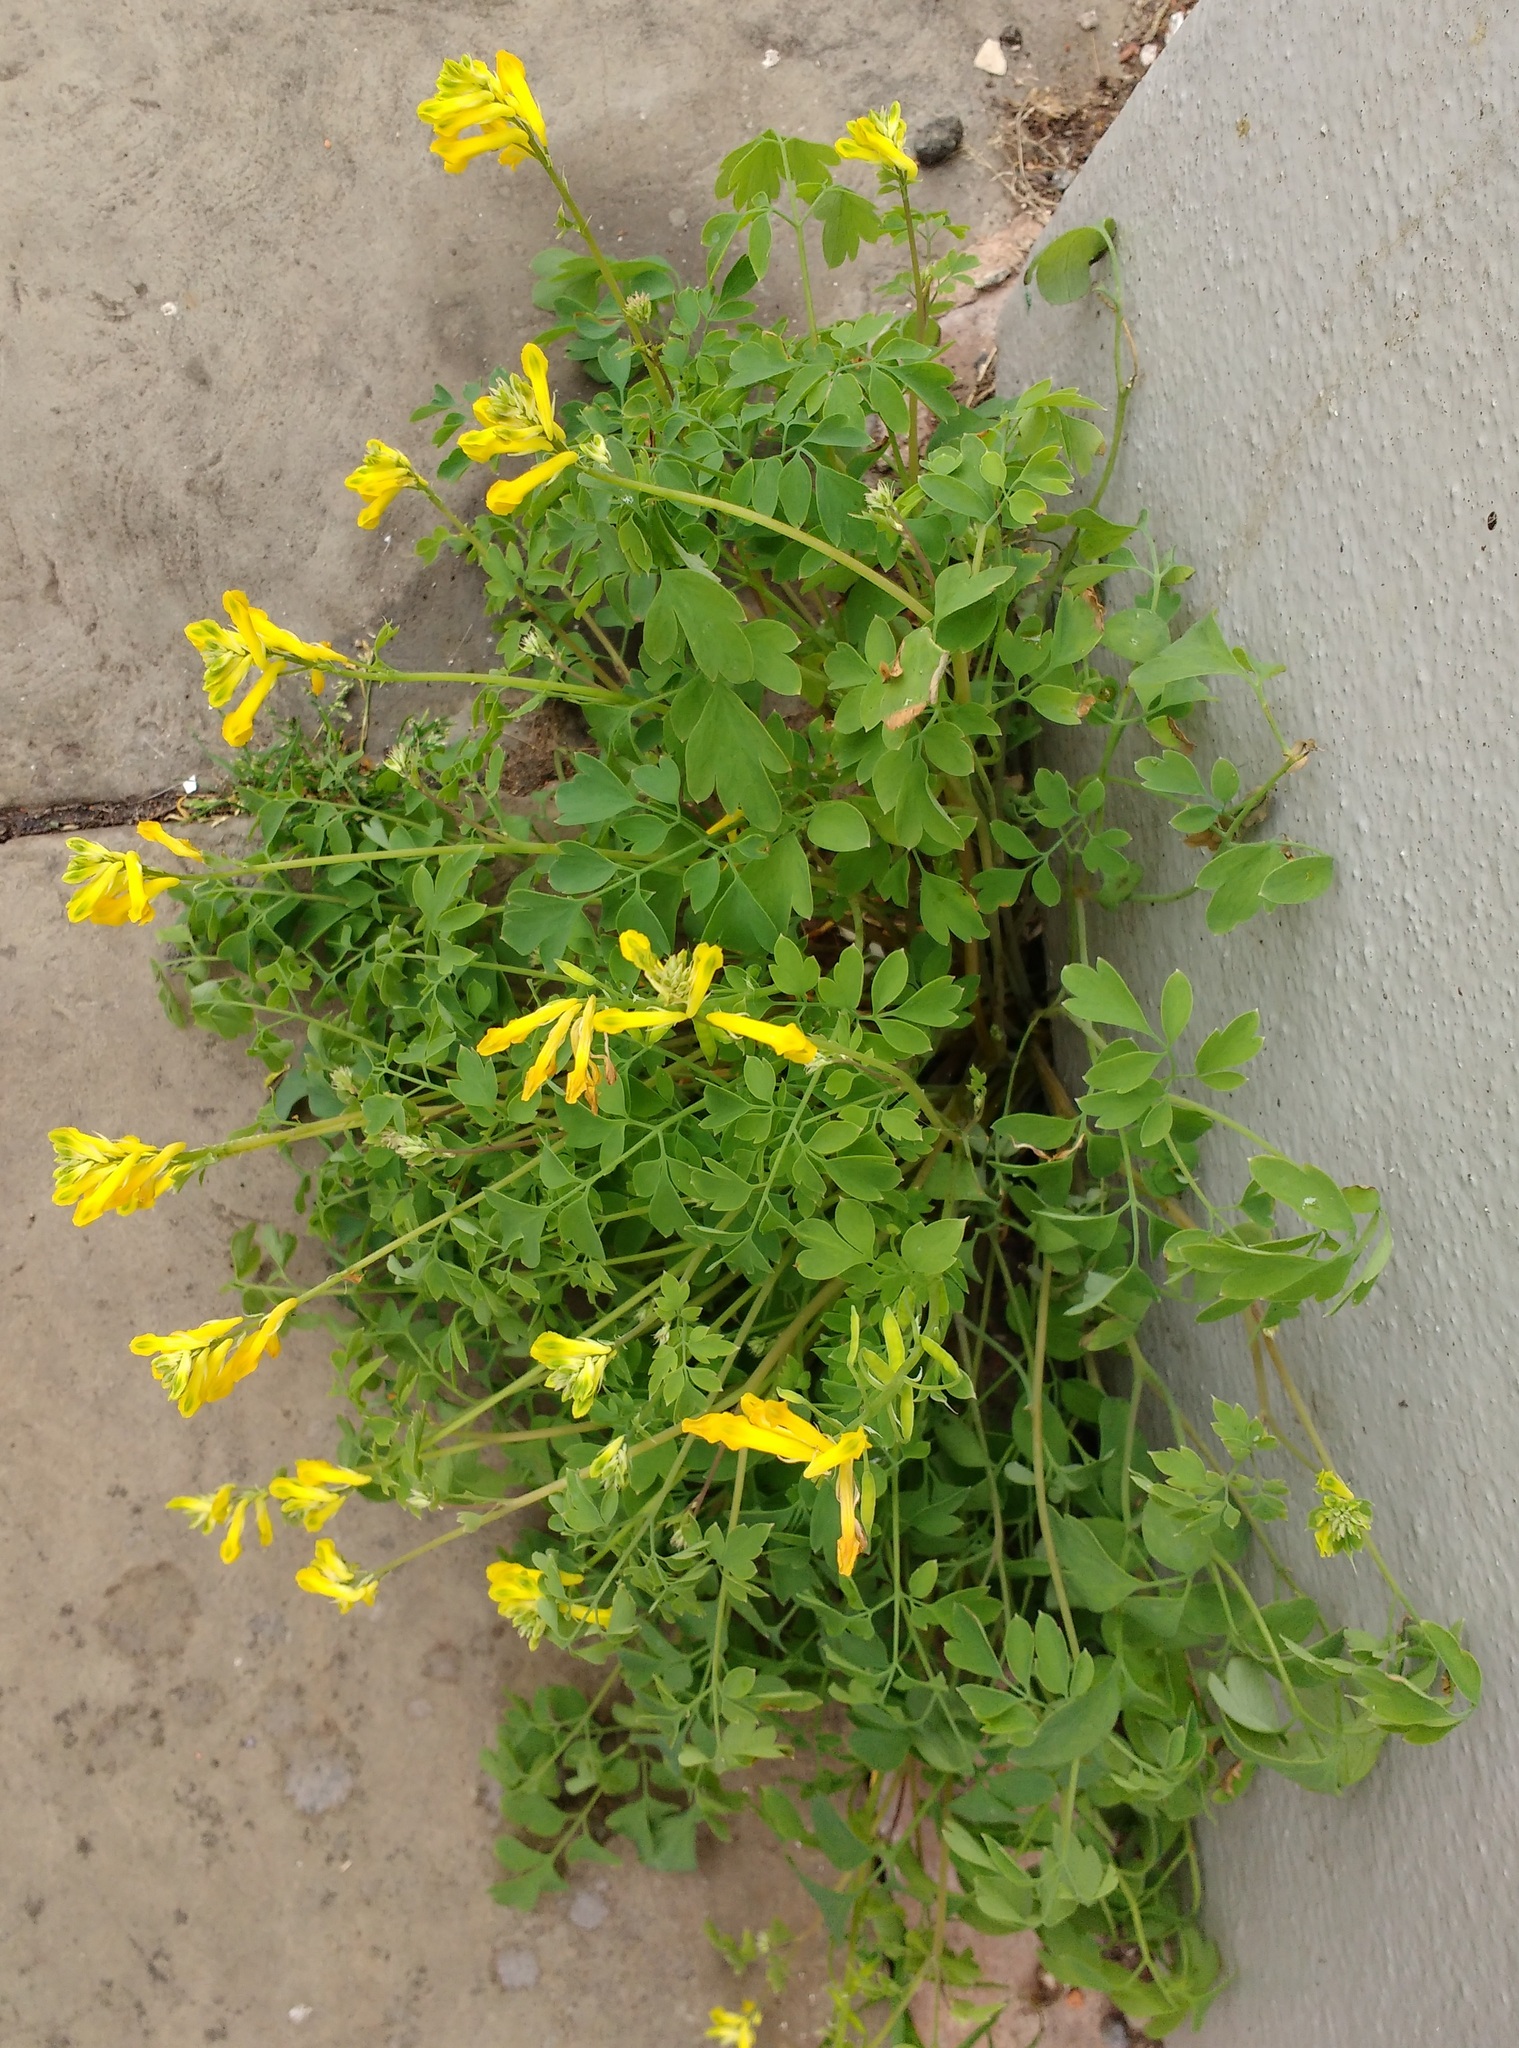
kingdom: Plantae
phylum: Tracheophyta
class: Magnoliopsida
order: Ranunculales
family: Papaveraceae
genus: Pseudofumaria
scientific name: Pseudofumaria lutea
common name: Yellow corydalis
